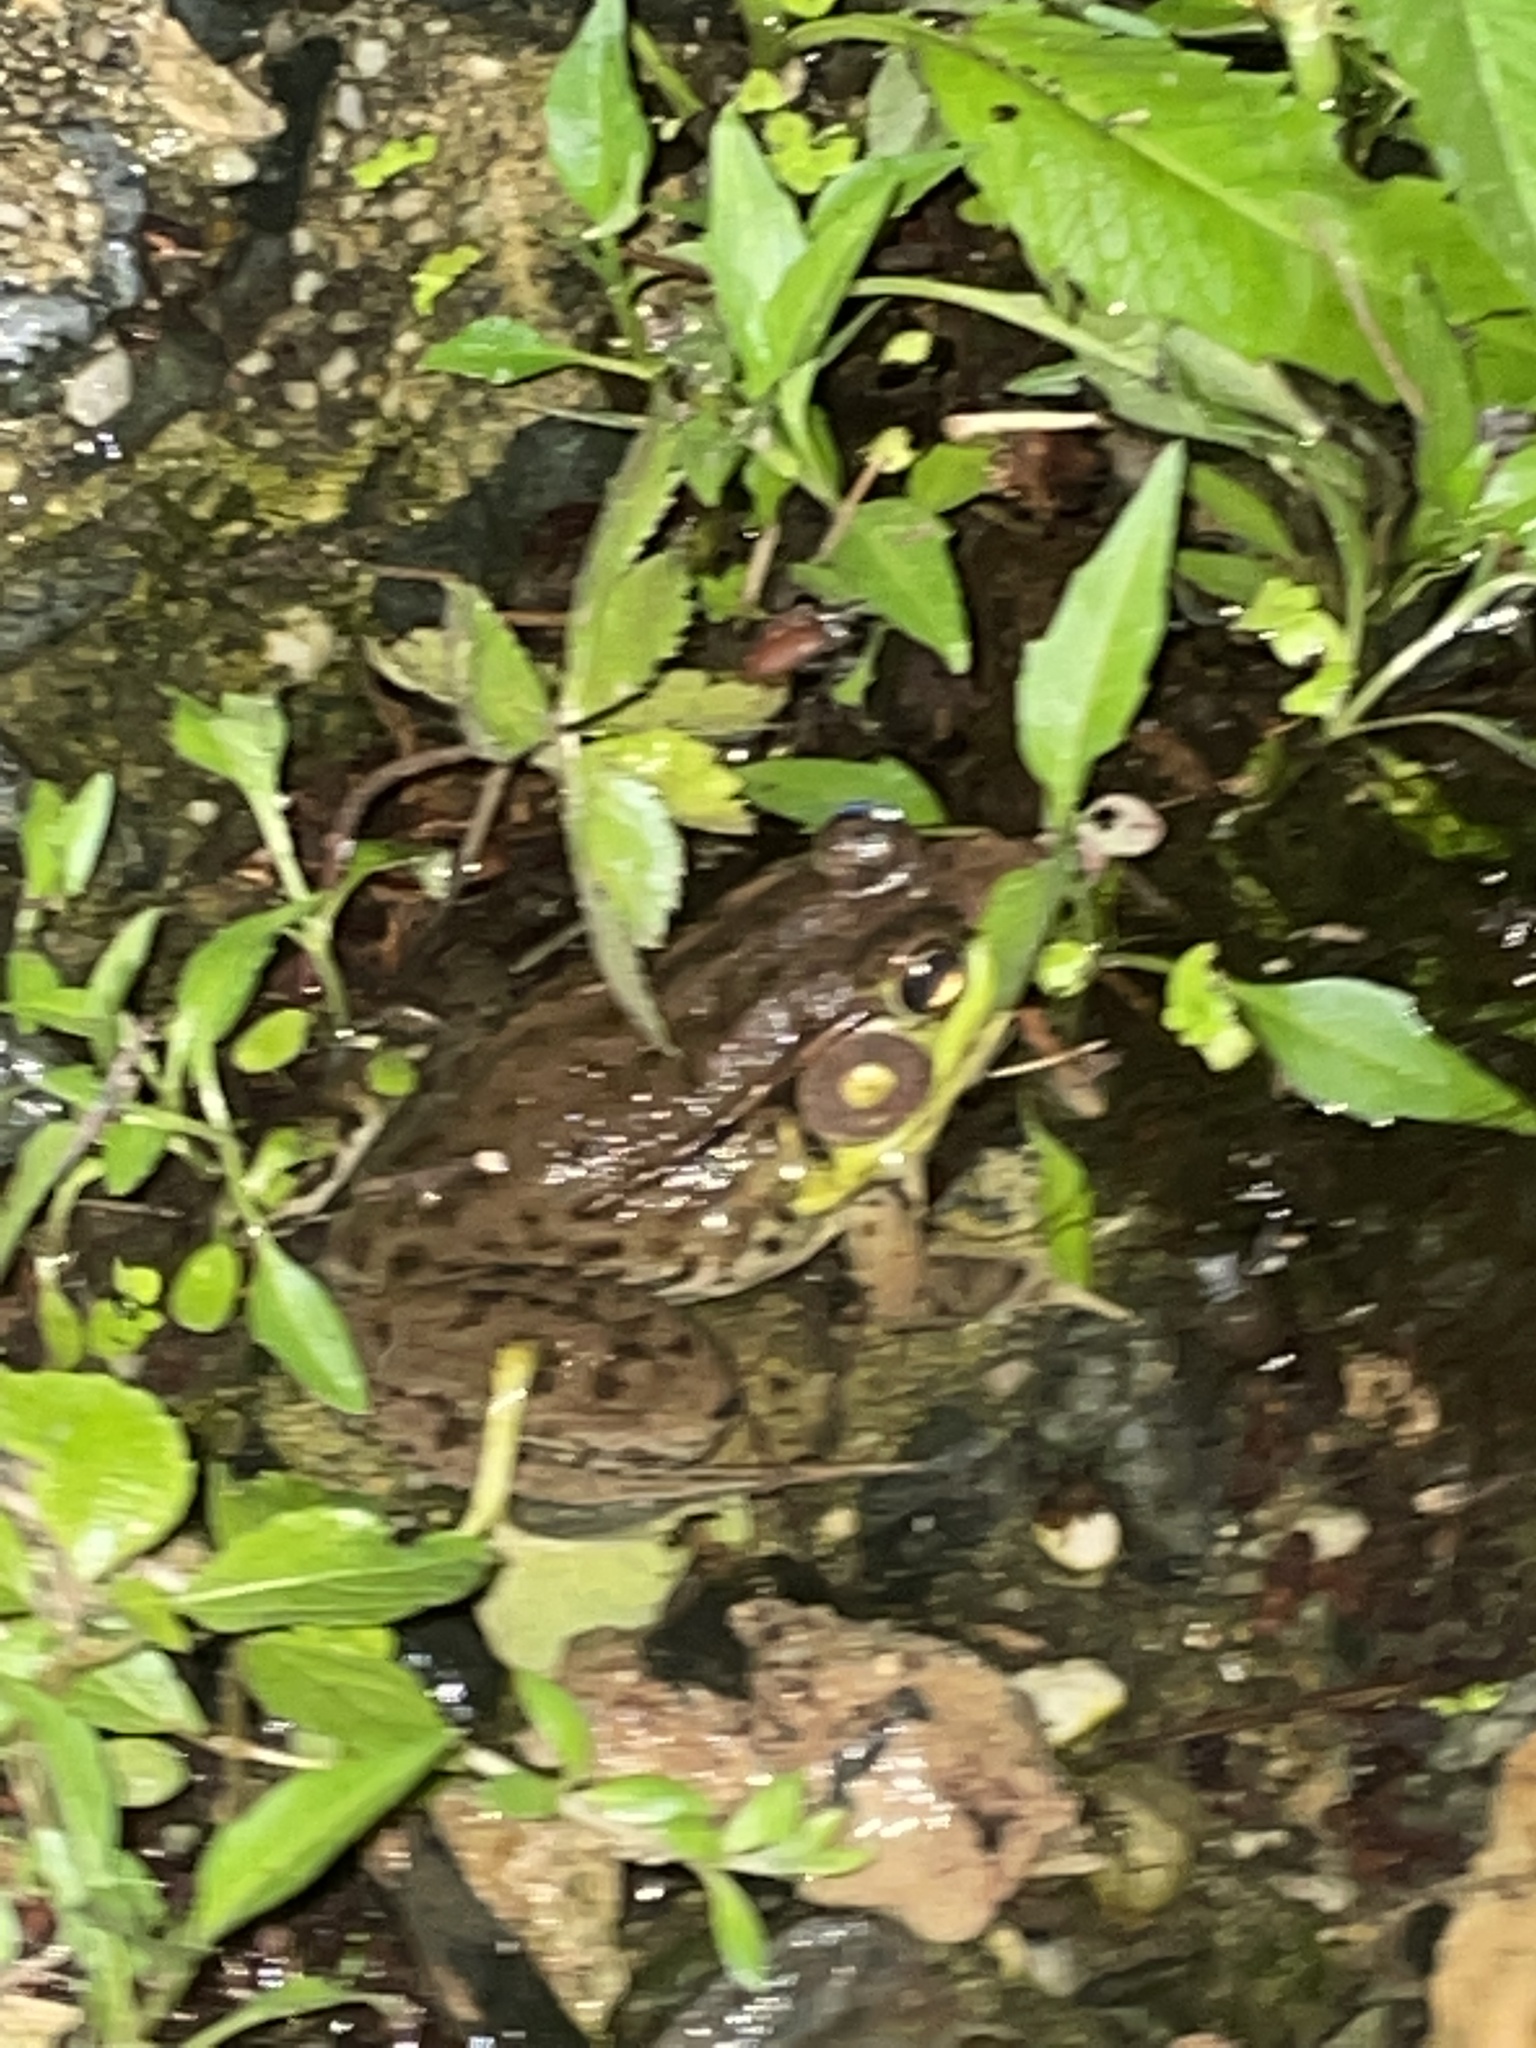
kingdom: Animalia
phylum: Chordata
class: Amphibia
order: Anura
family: Ranidae
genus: Lithobates
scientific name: Lithobates clamitans
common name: Green frog
